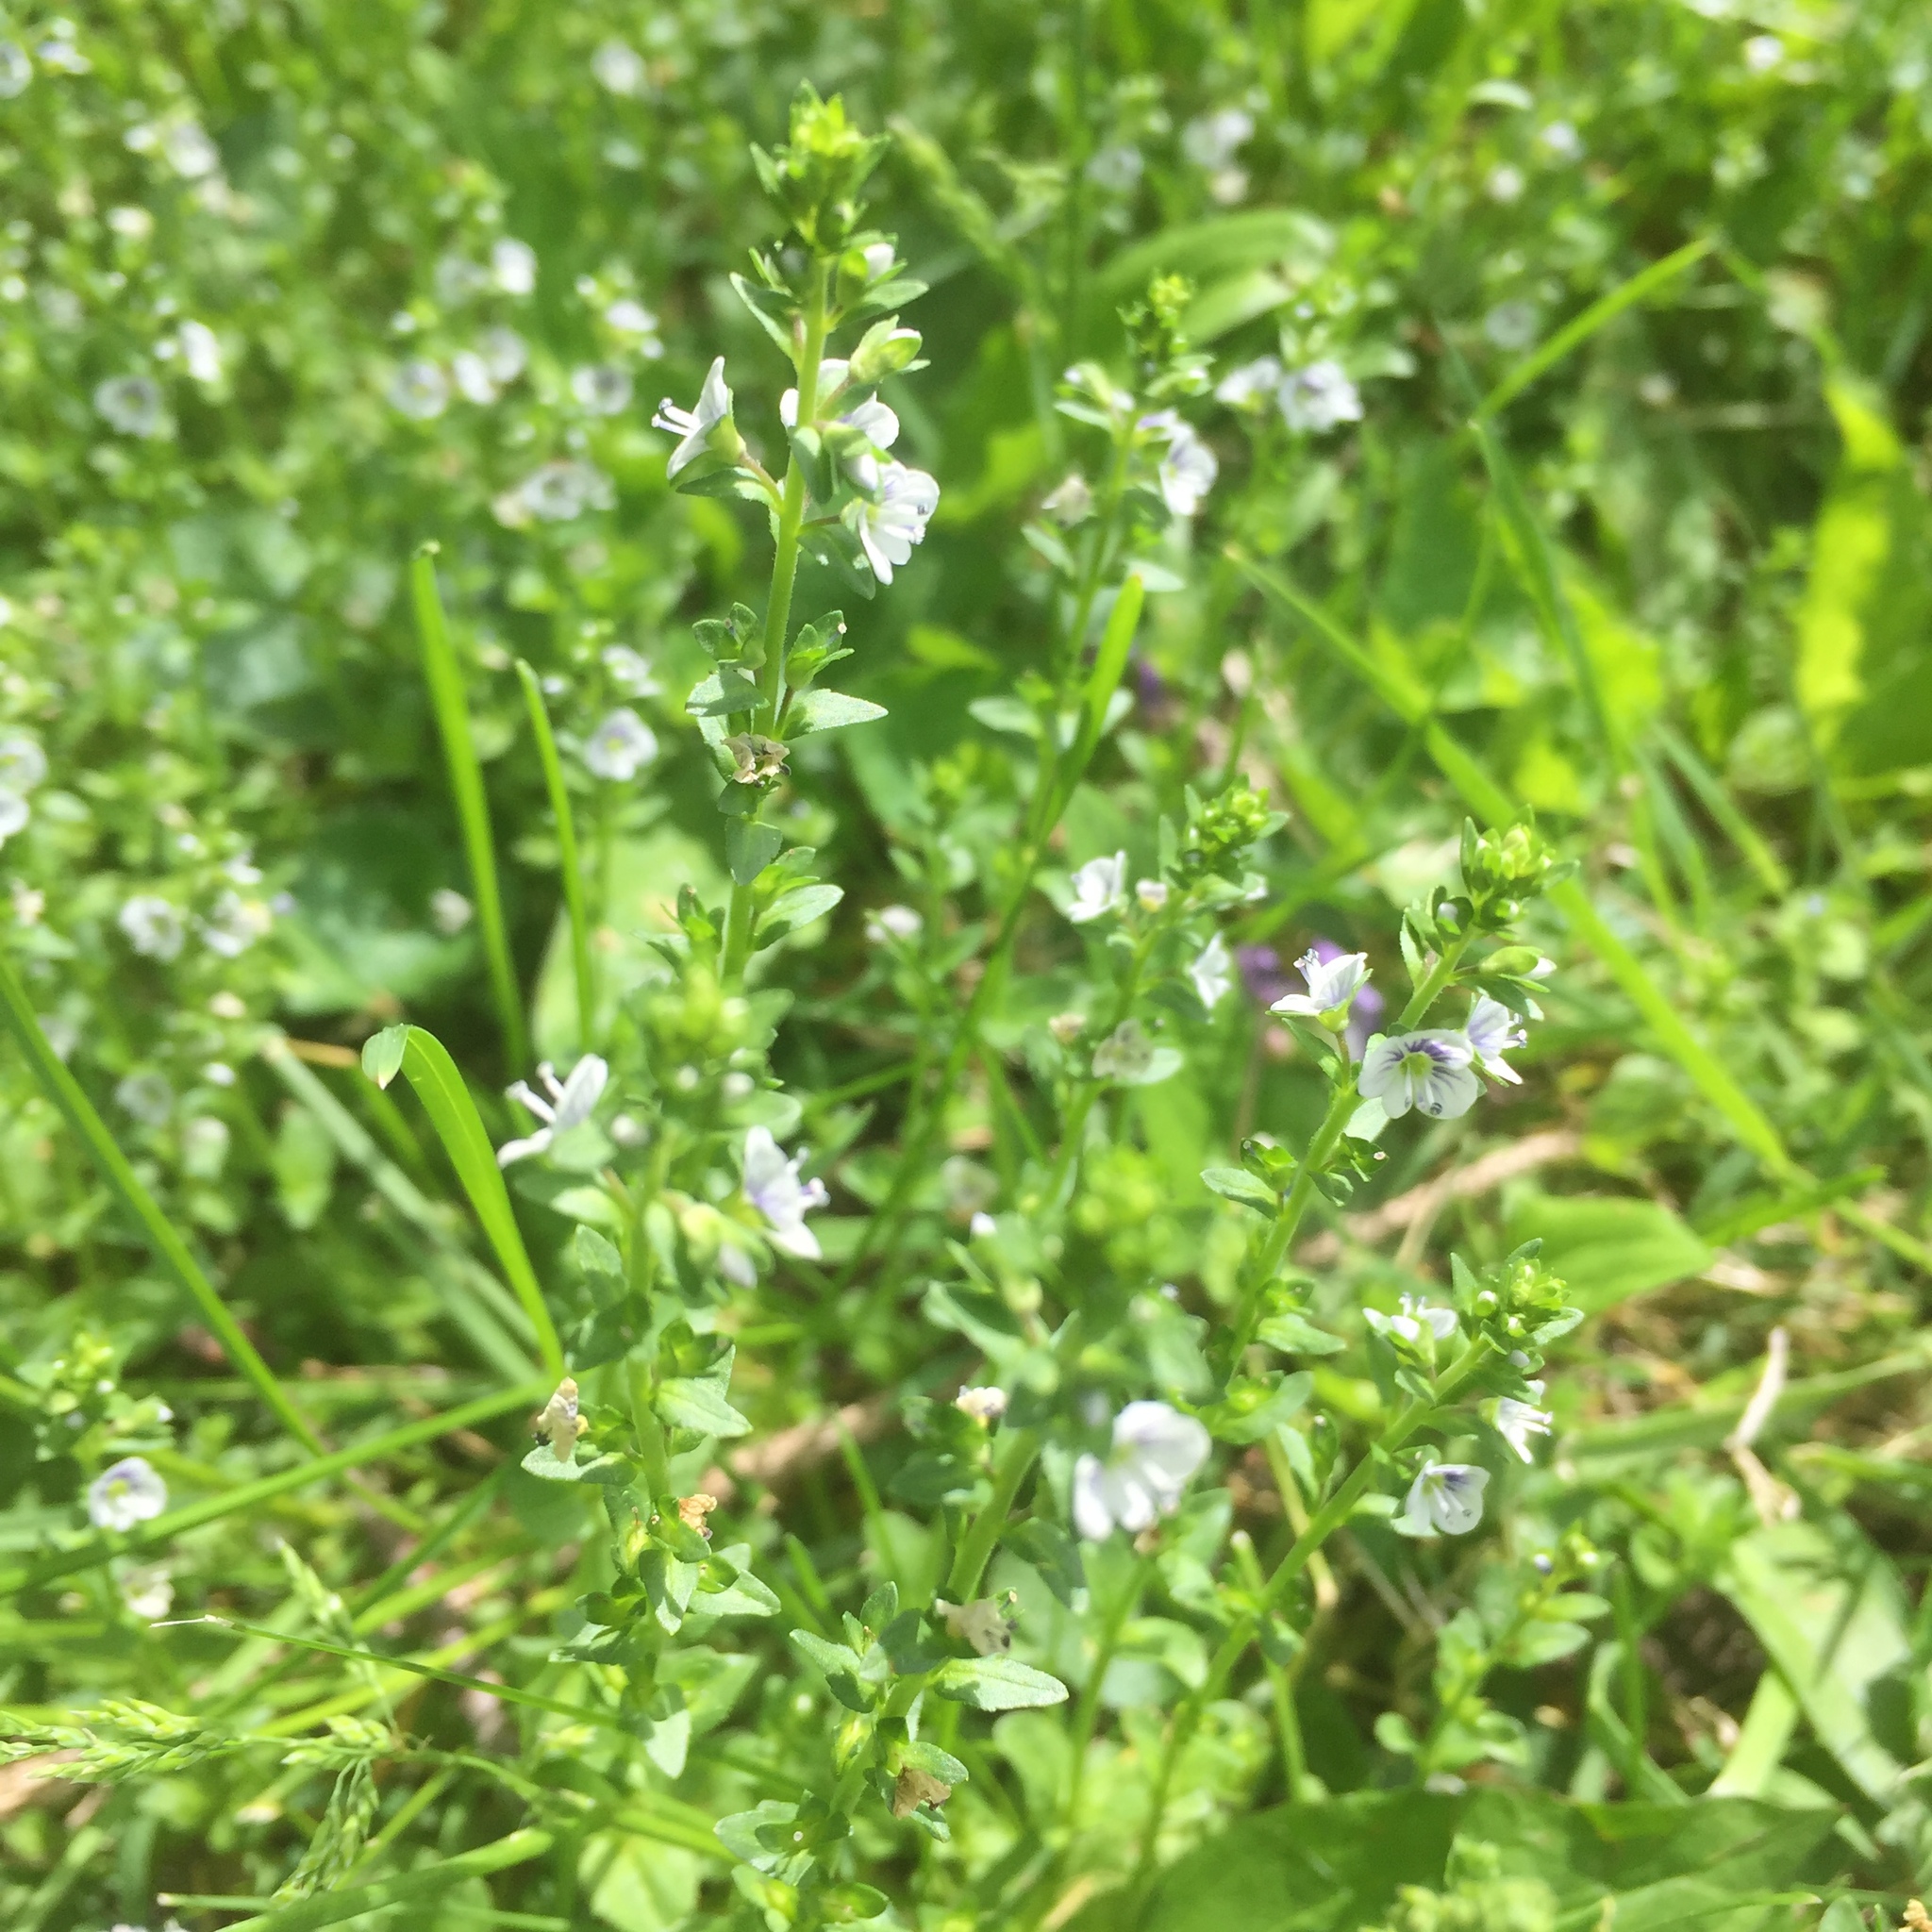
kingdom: Plantae
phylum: Tracheophyta
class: Magnoliopsida
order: Lamiales
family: Plantaginaceae
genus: Veronica
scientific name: Veronica serpyllifolia
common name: Thyme-leaved speedwell
